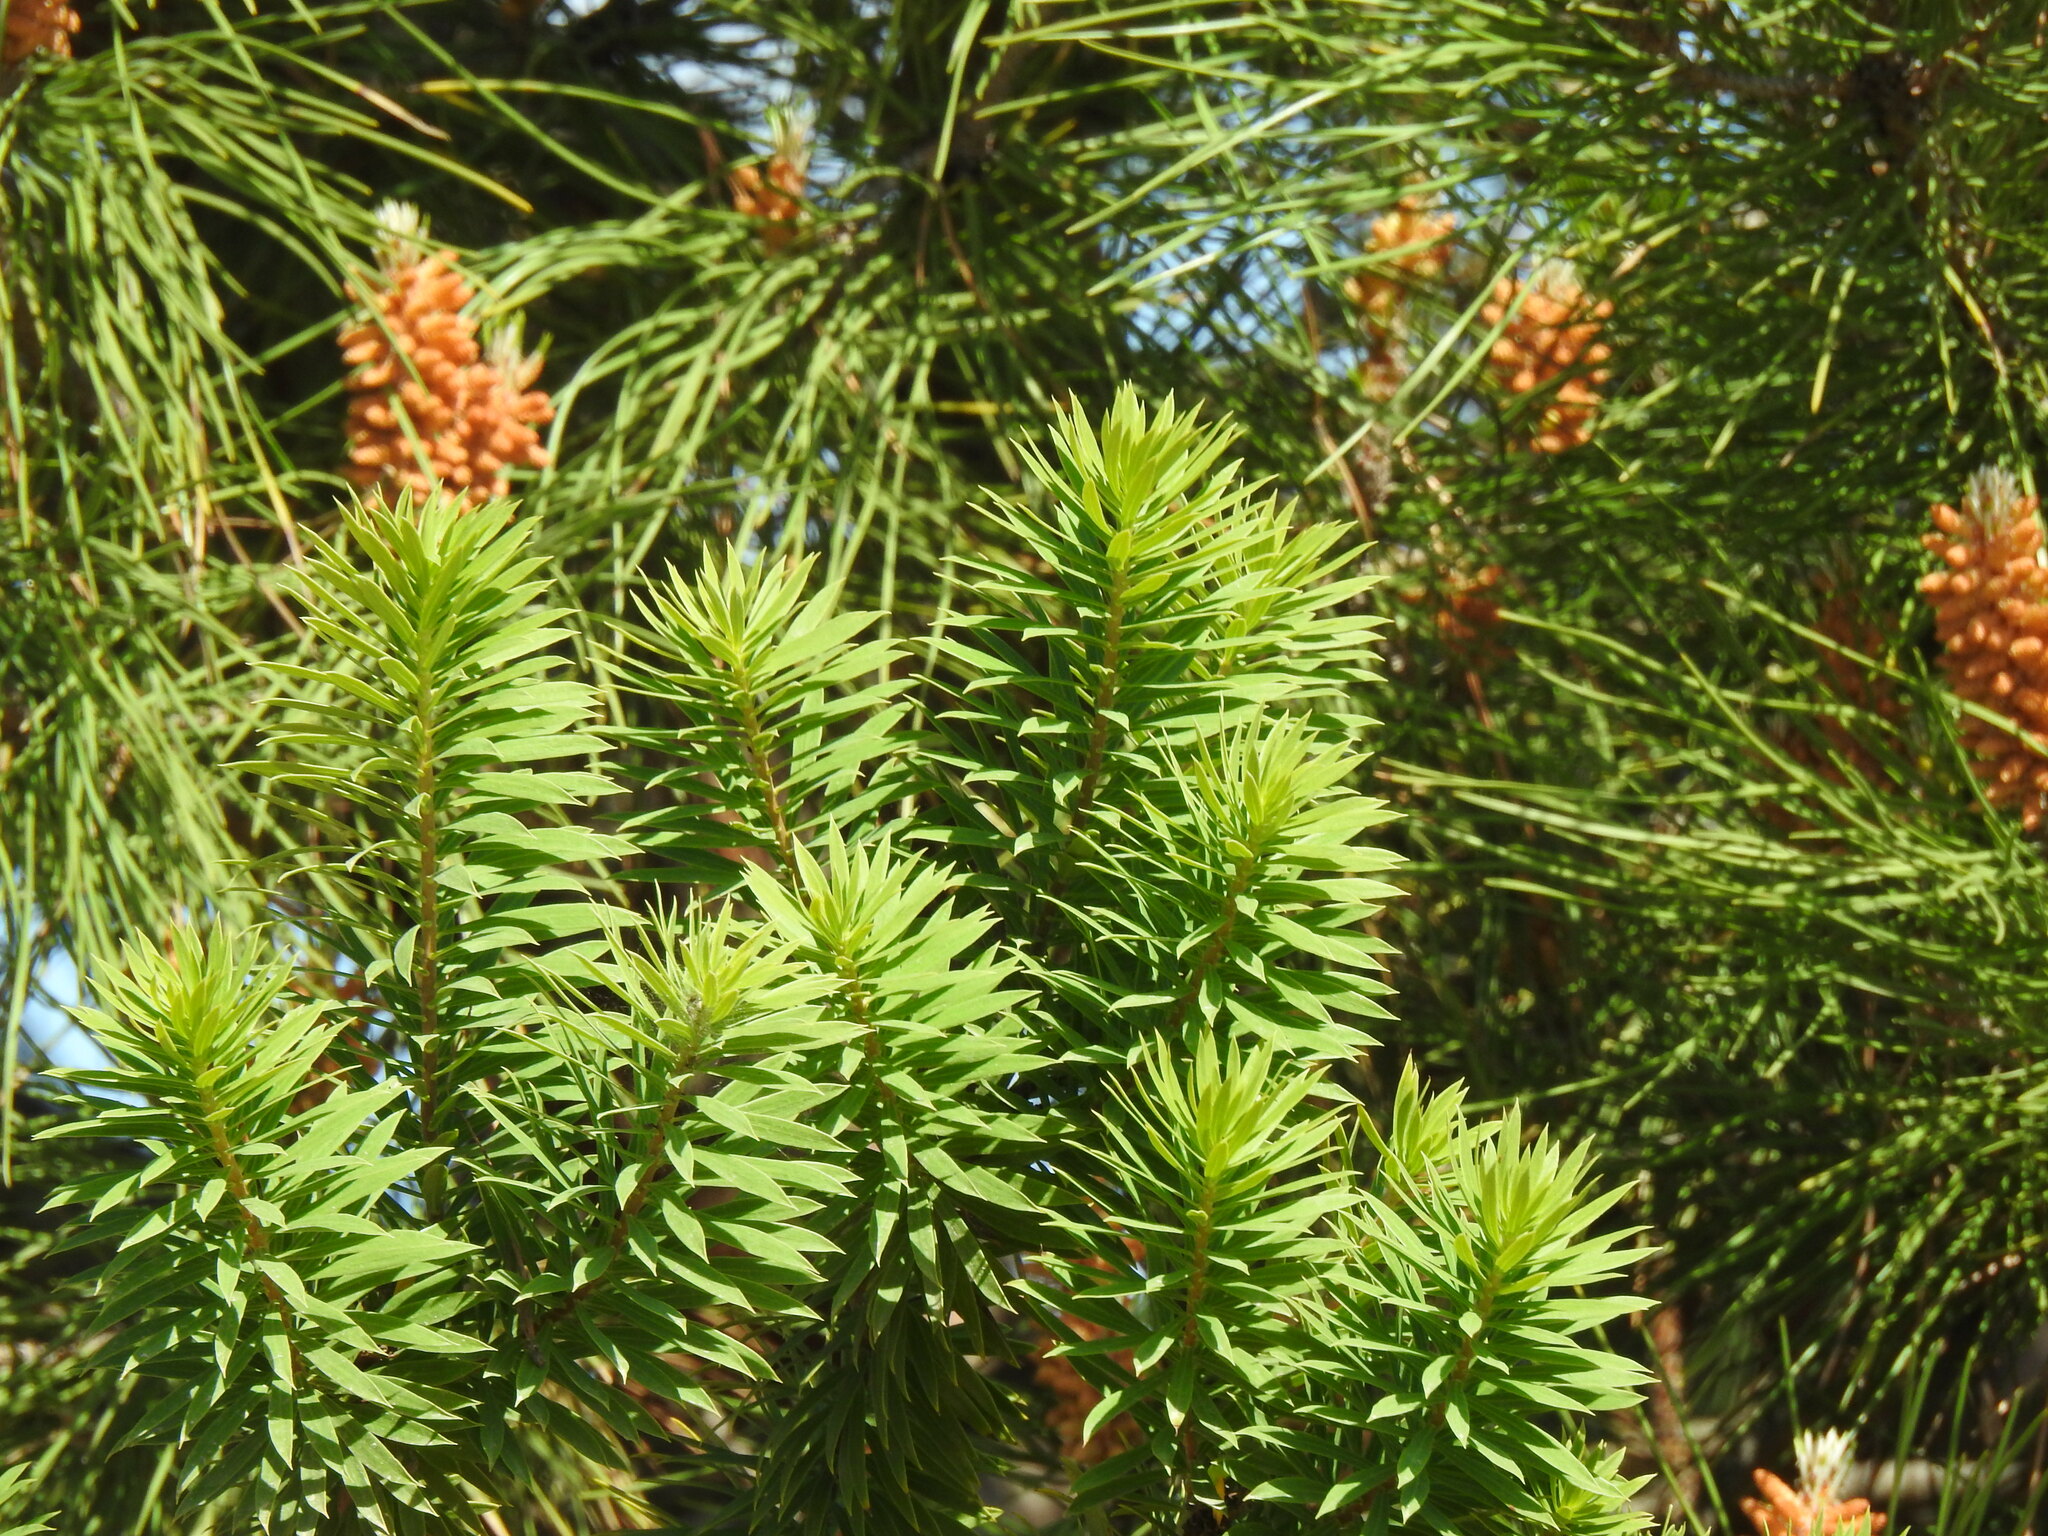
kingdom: Plantae
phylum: Tracheophyta
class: Magnoliopsida
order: Malvales
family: Thymelaeaceae
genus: Daphne
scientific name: Daphne gnidium
